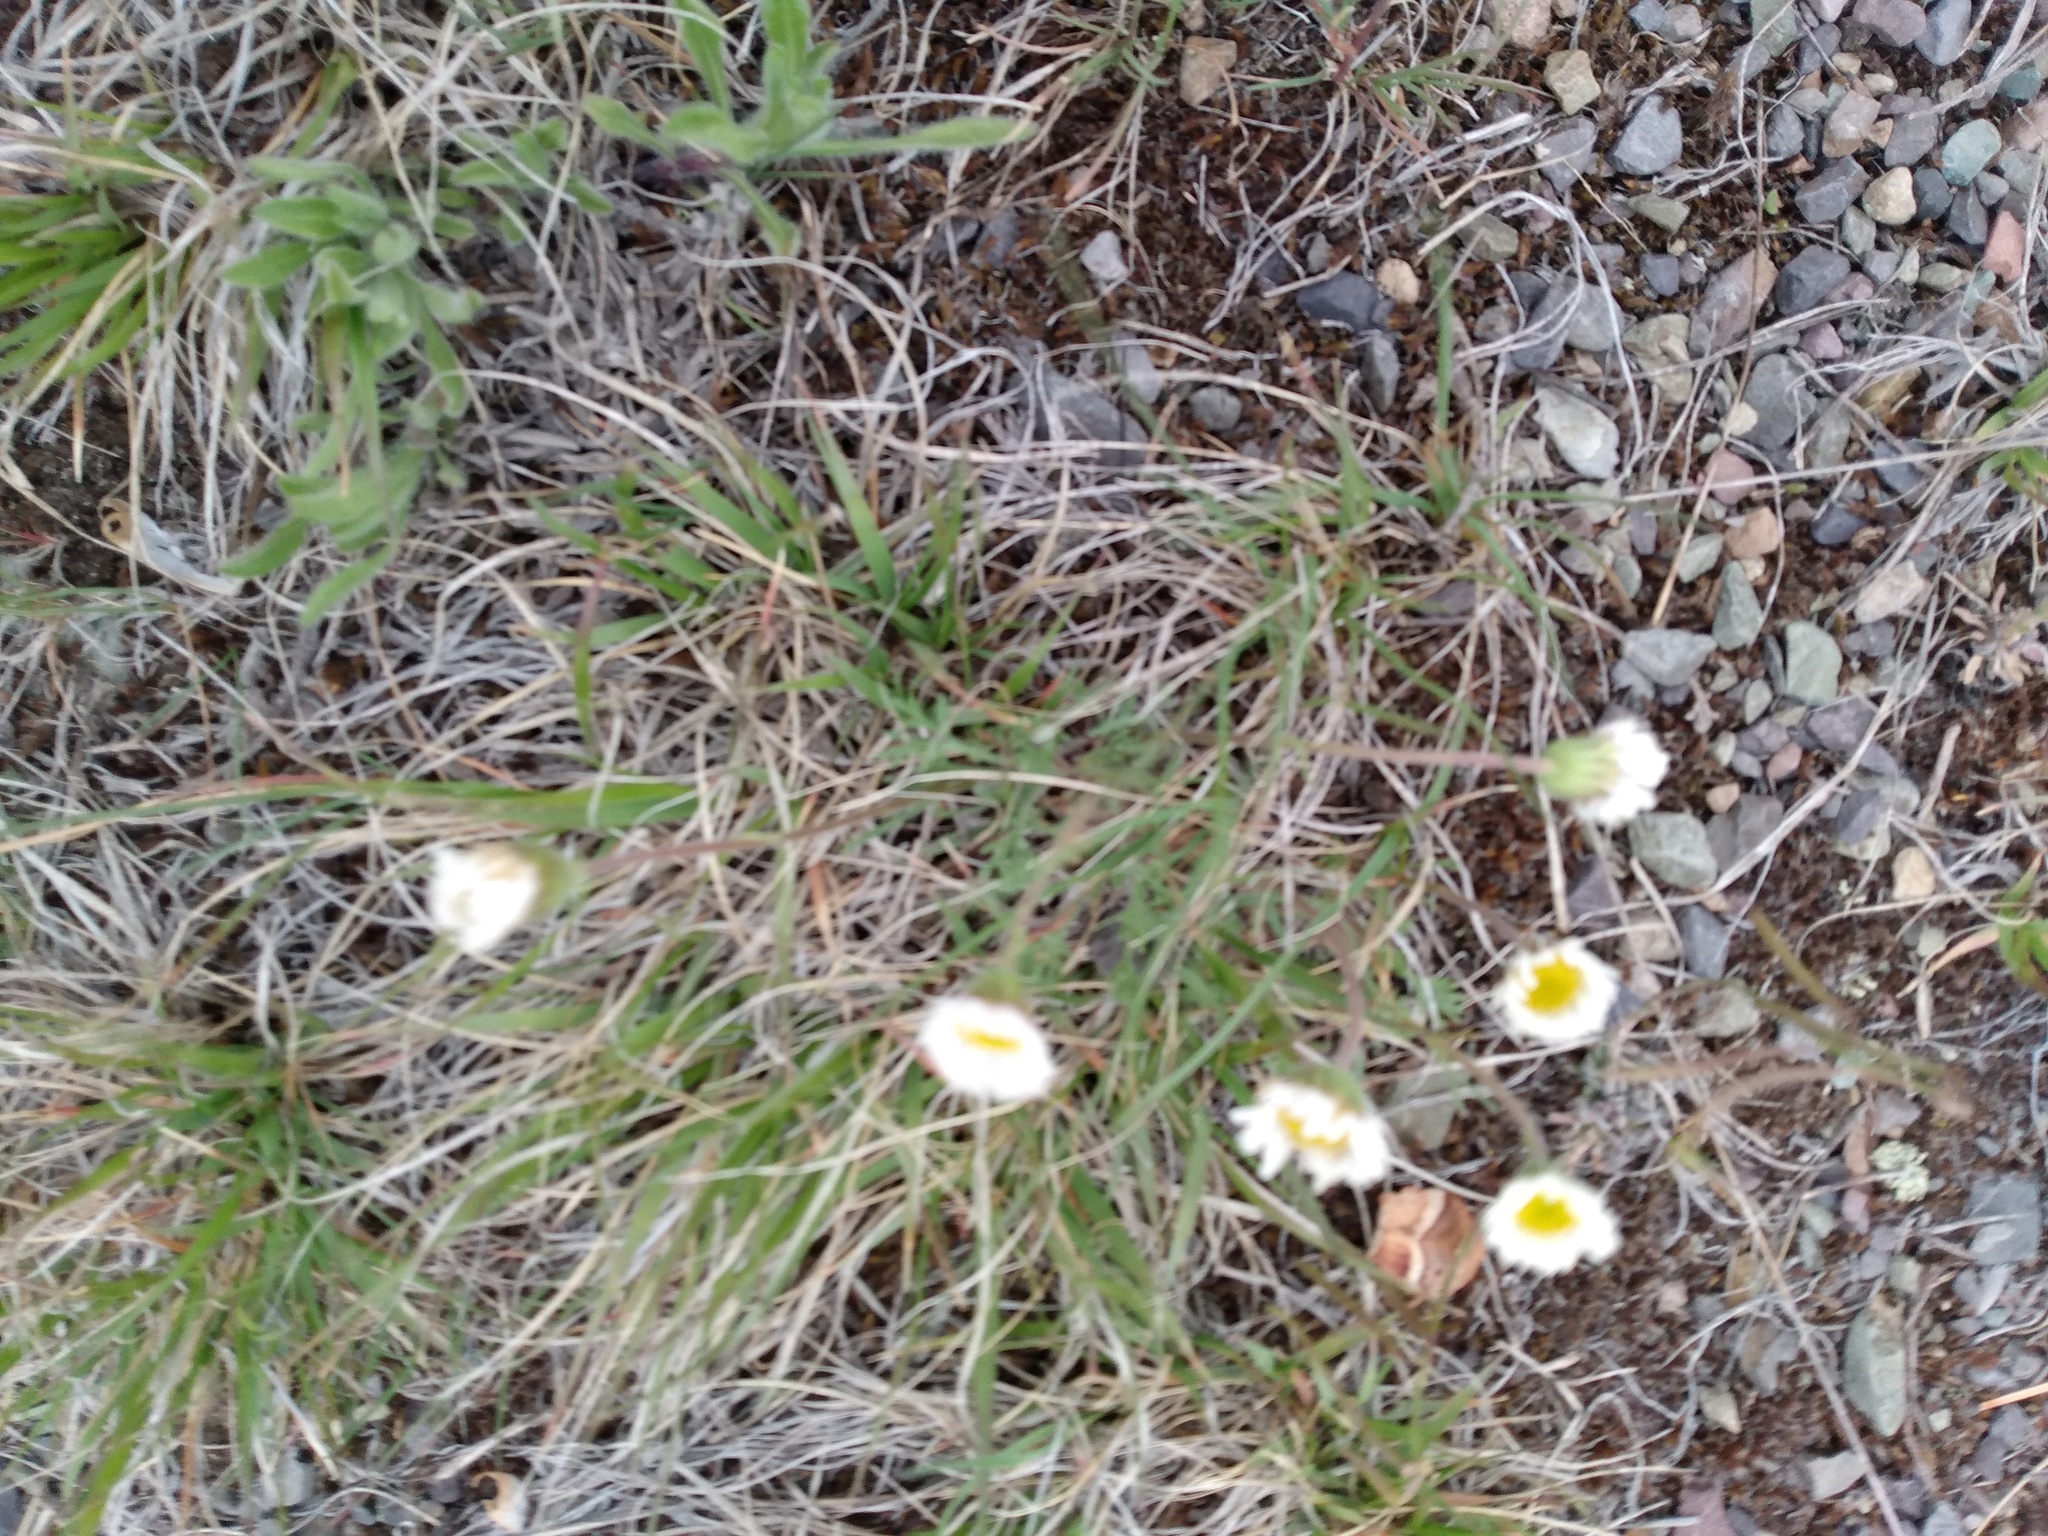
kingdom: Plantae
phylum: Tracheophyta
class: Magnoliopsida
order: Asterales
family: Asteraceae
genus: Erigeron
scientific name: Erigeron compositus
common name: Dwarf mountain fleabane
